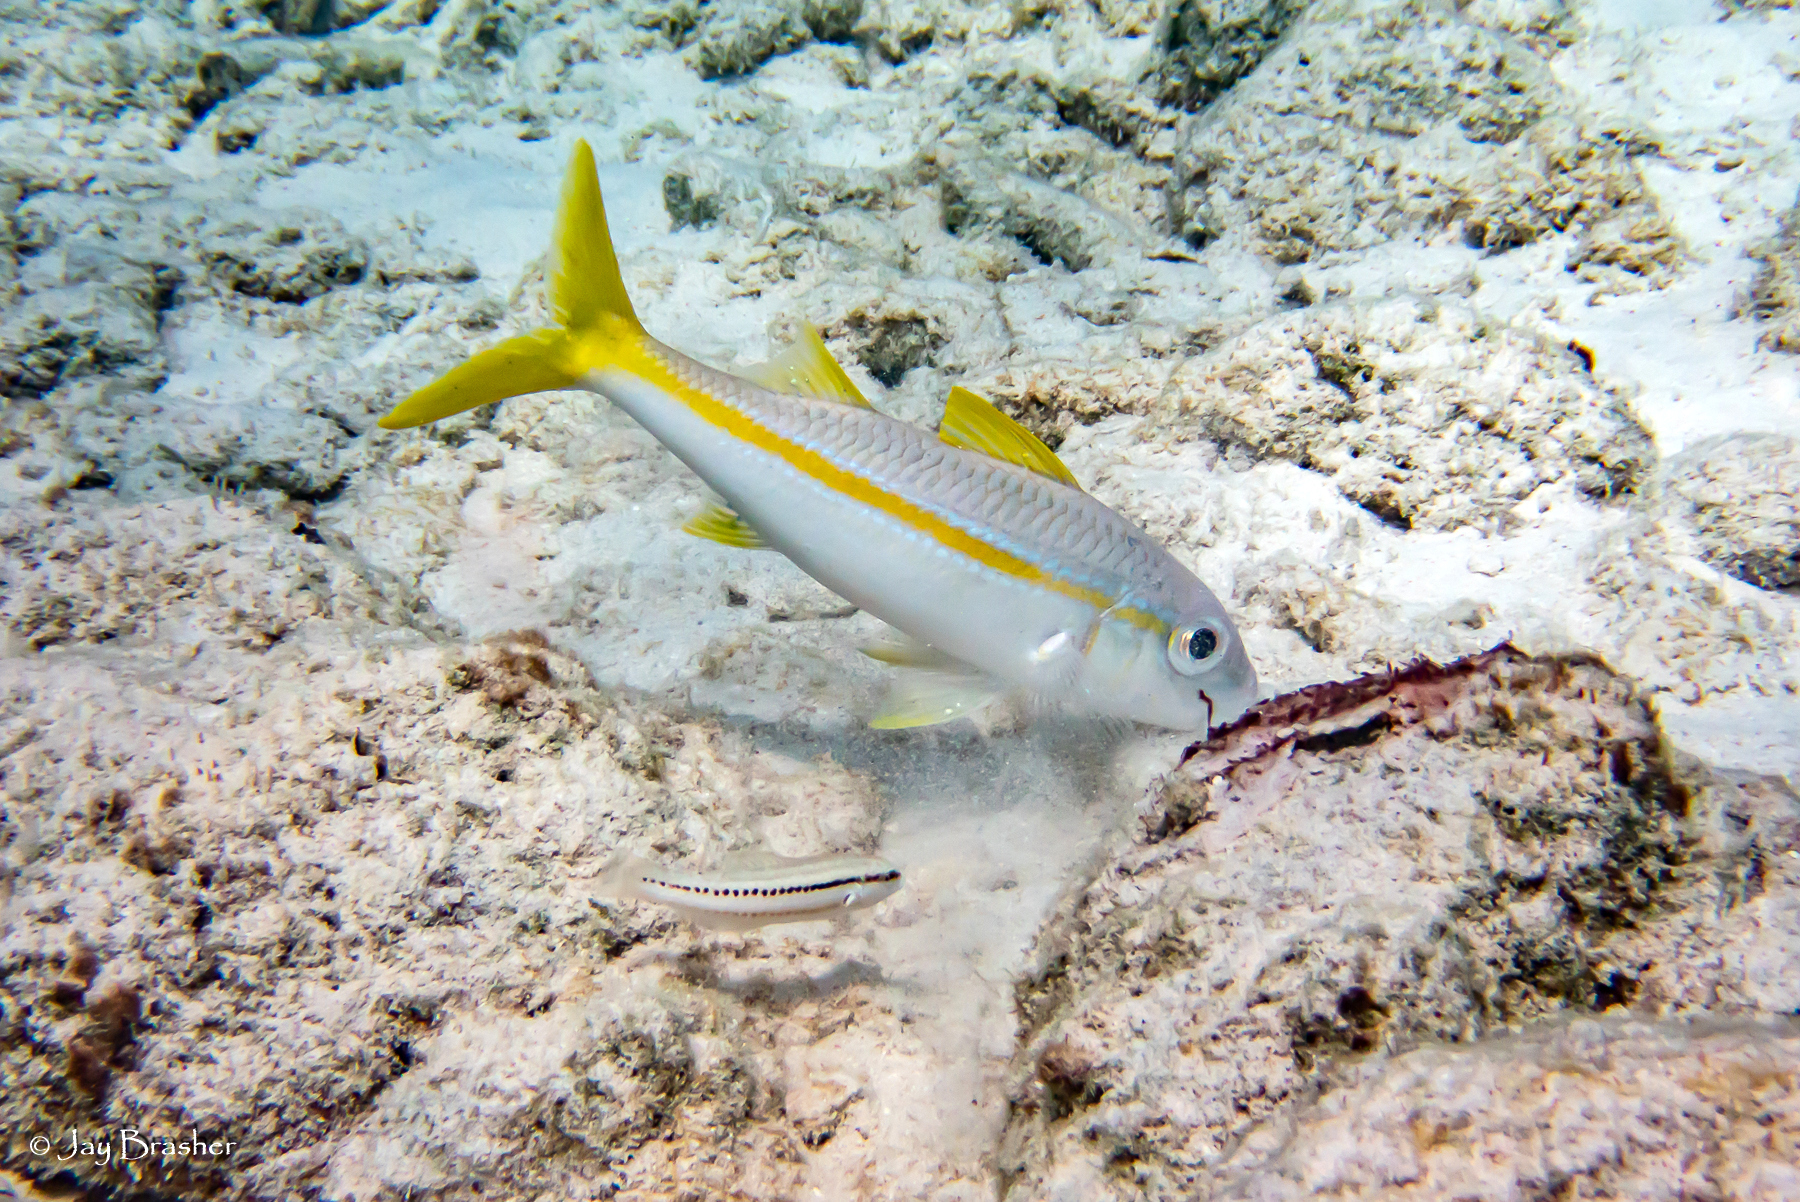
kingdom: Animalia
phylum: Chordata
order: Perciformes
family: Mullidae
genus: Mulloidichthys
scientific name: Mulloidichthys martinicus
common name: Yellow goatfish
